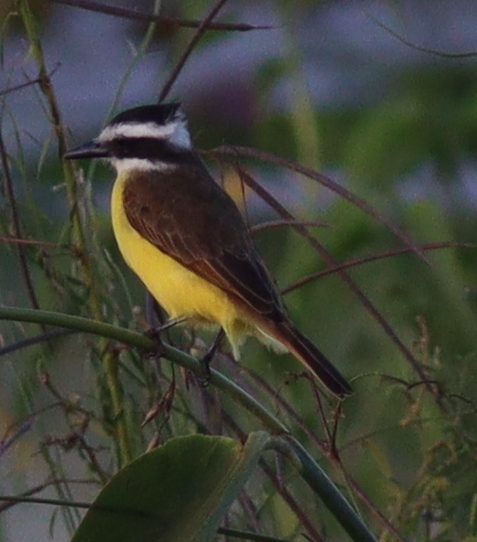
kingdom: Animalia
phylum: Chordata
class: Aves
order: Passeriformes
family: Tyrannidae
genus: Pitangus
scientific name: Pitangus sulphuratus
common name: Great kiskadee
